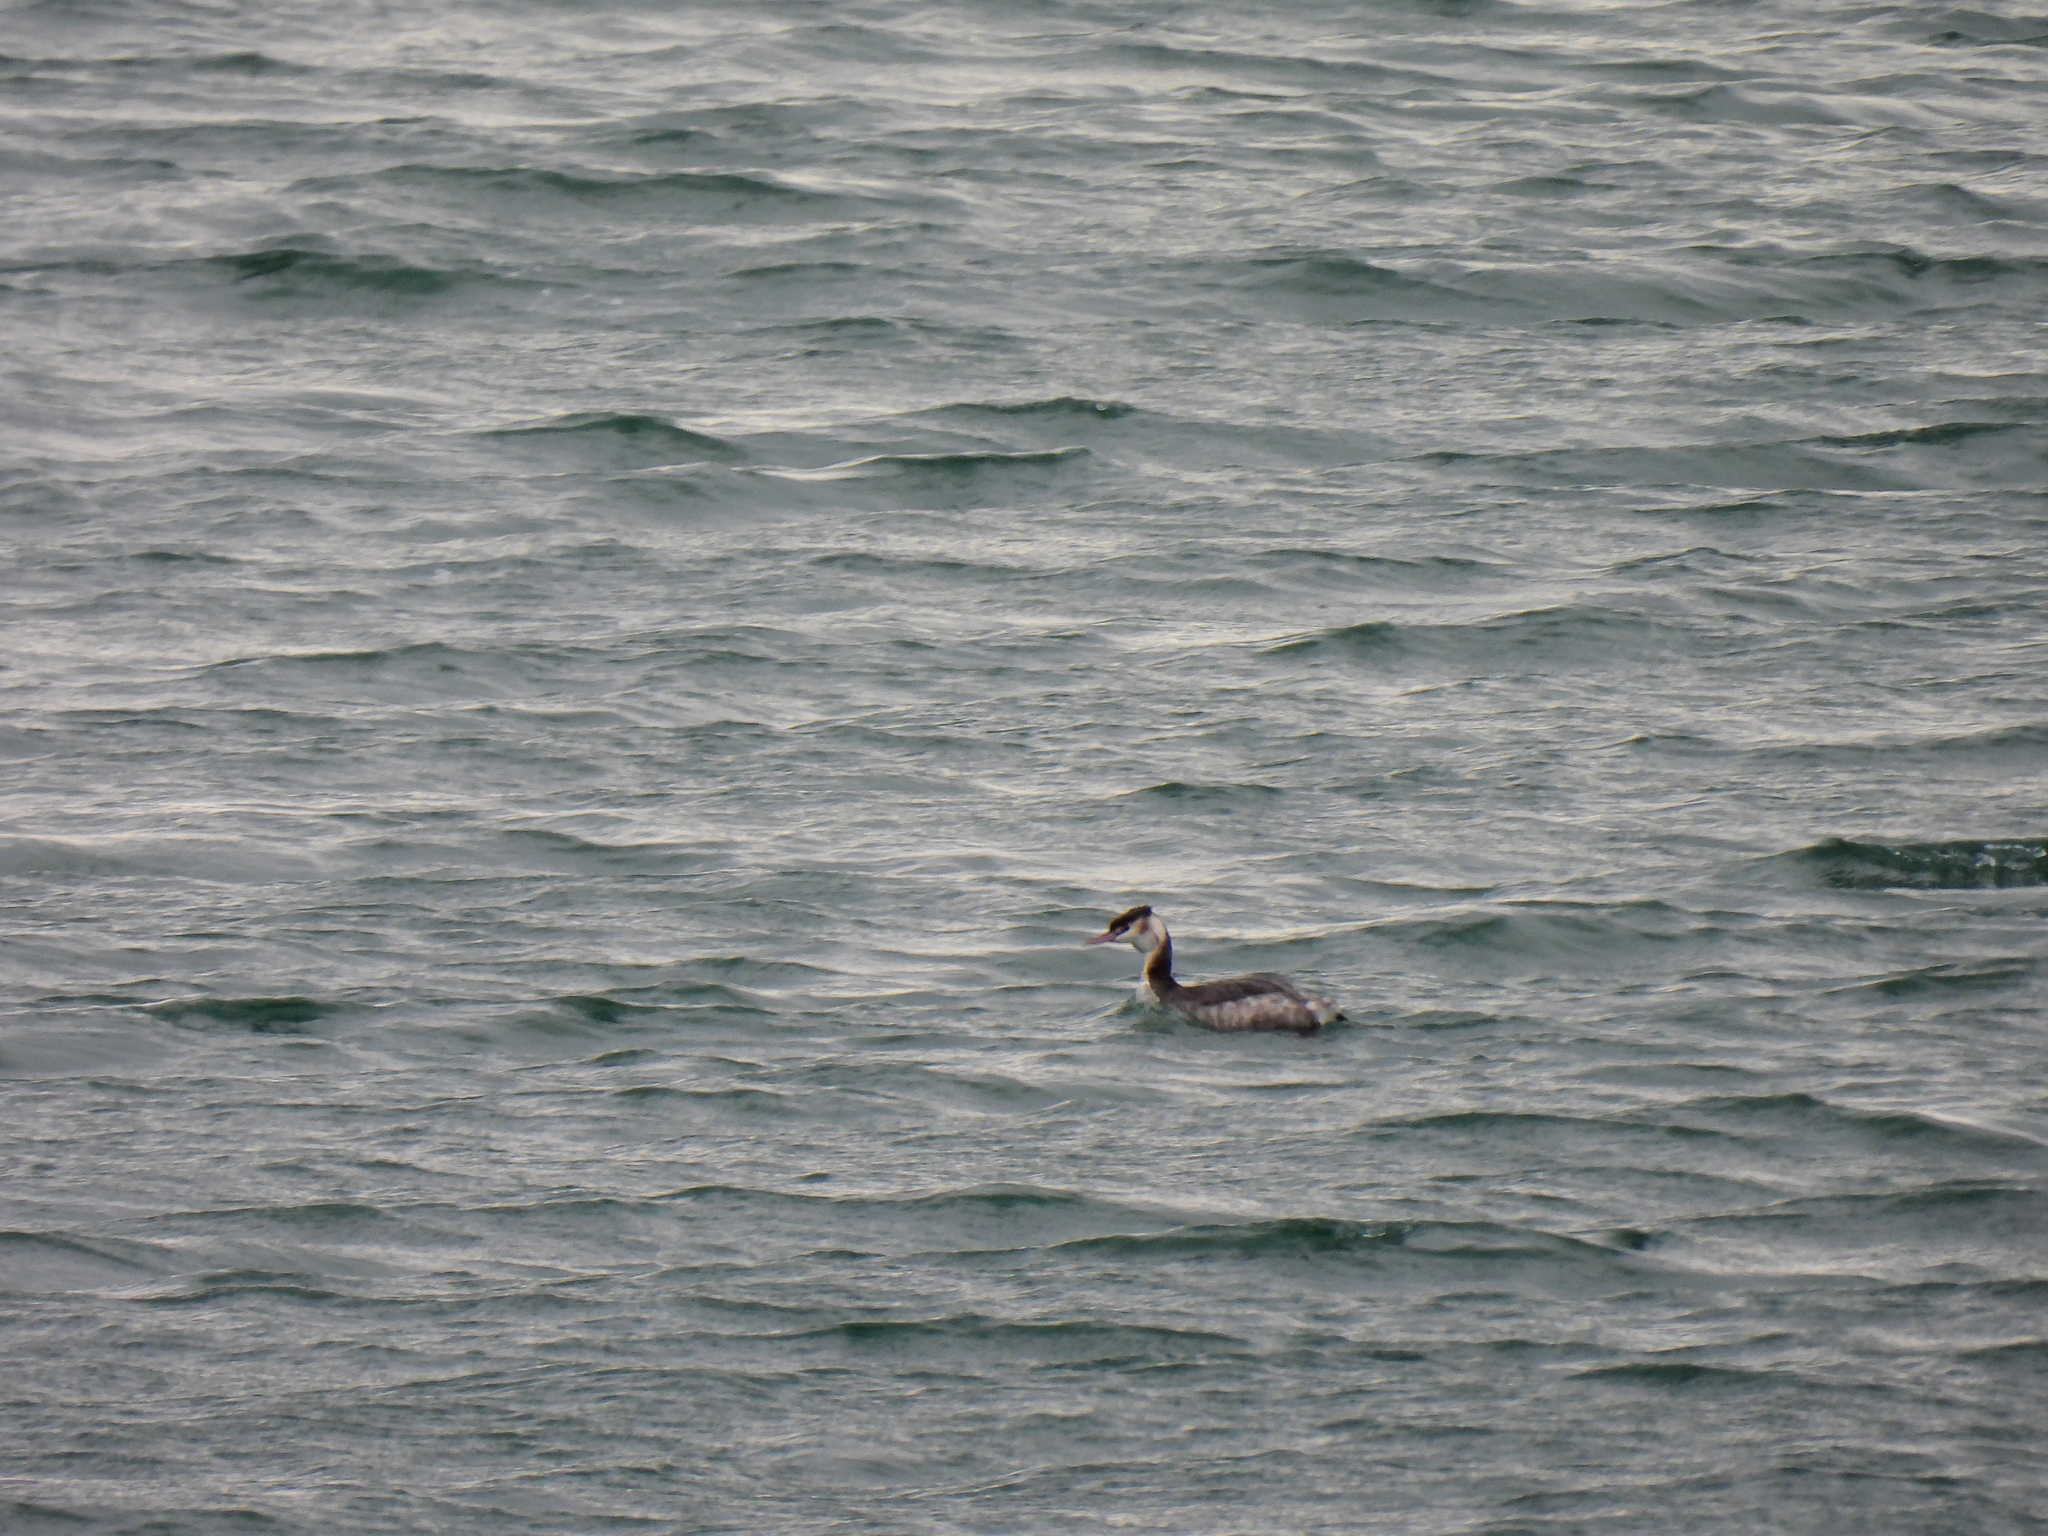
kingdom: Animalia
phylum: Chordata
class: Aves
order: Podicipediformes
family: Podicipedidae
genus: Podiceps
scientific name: Podiceps cristatus
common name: Great crested grebe
